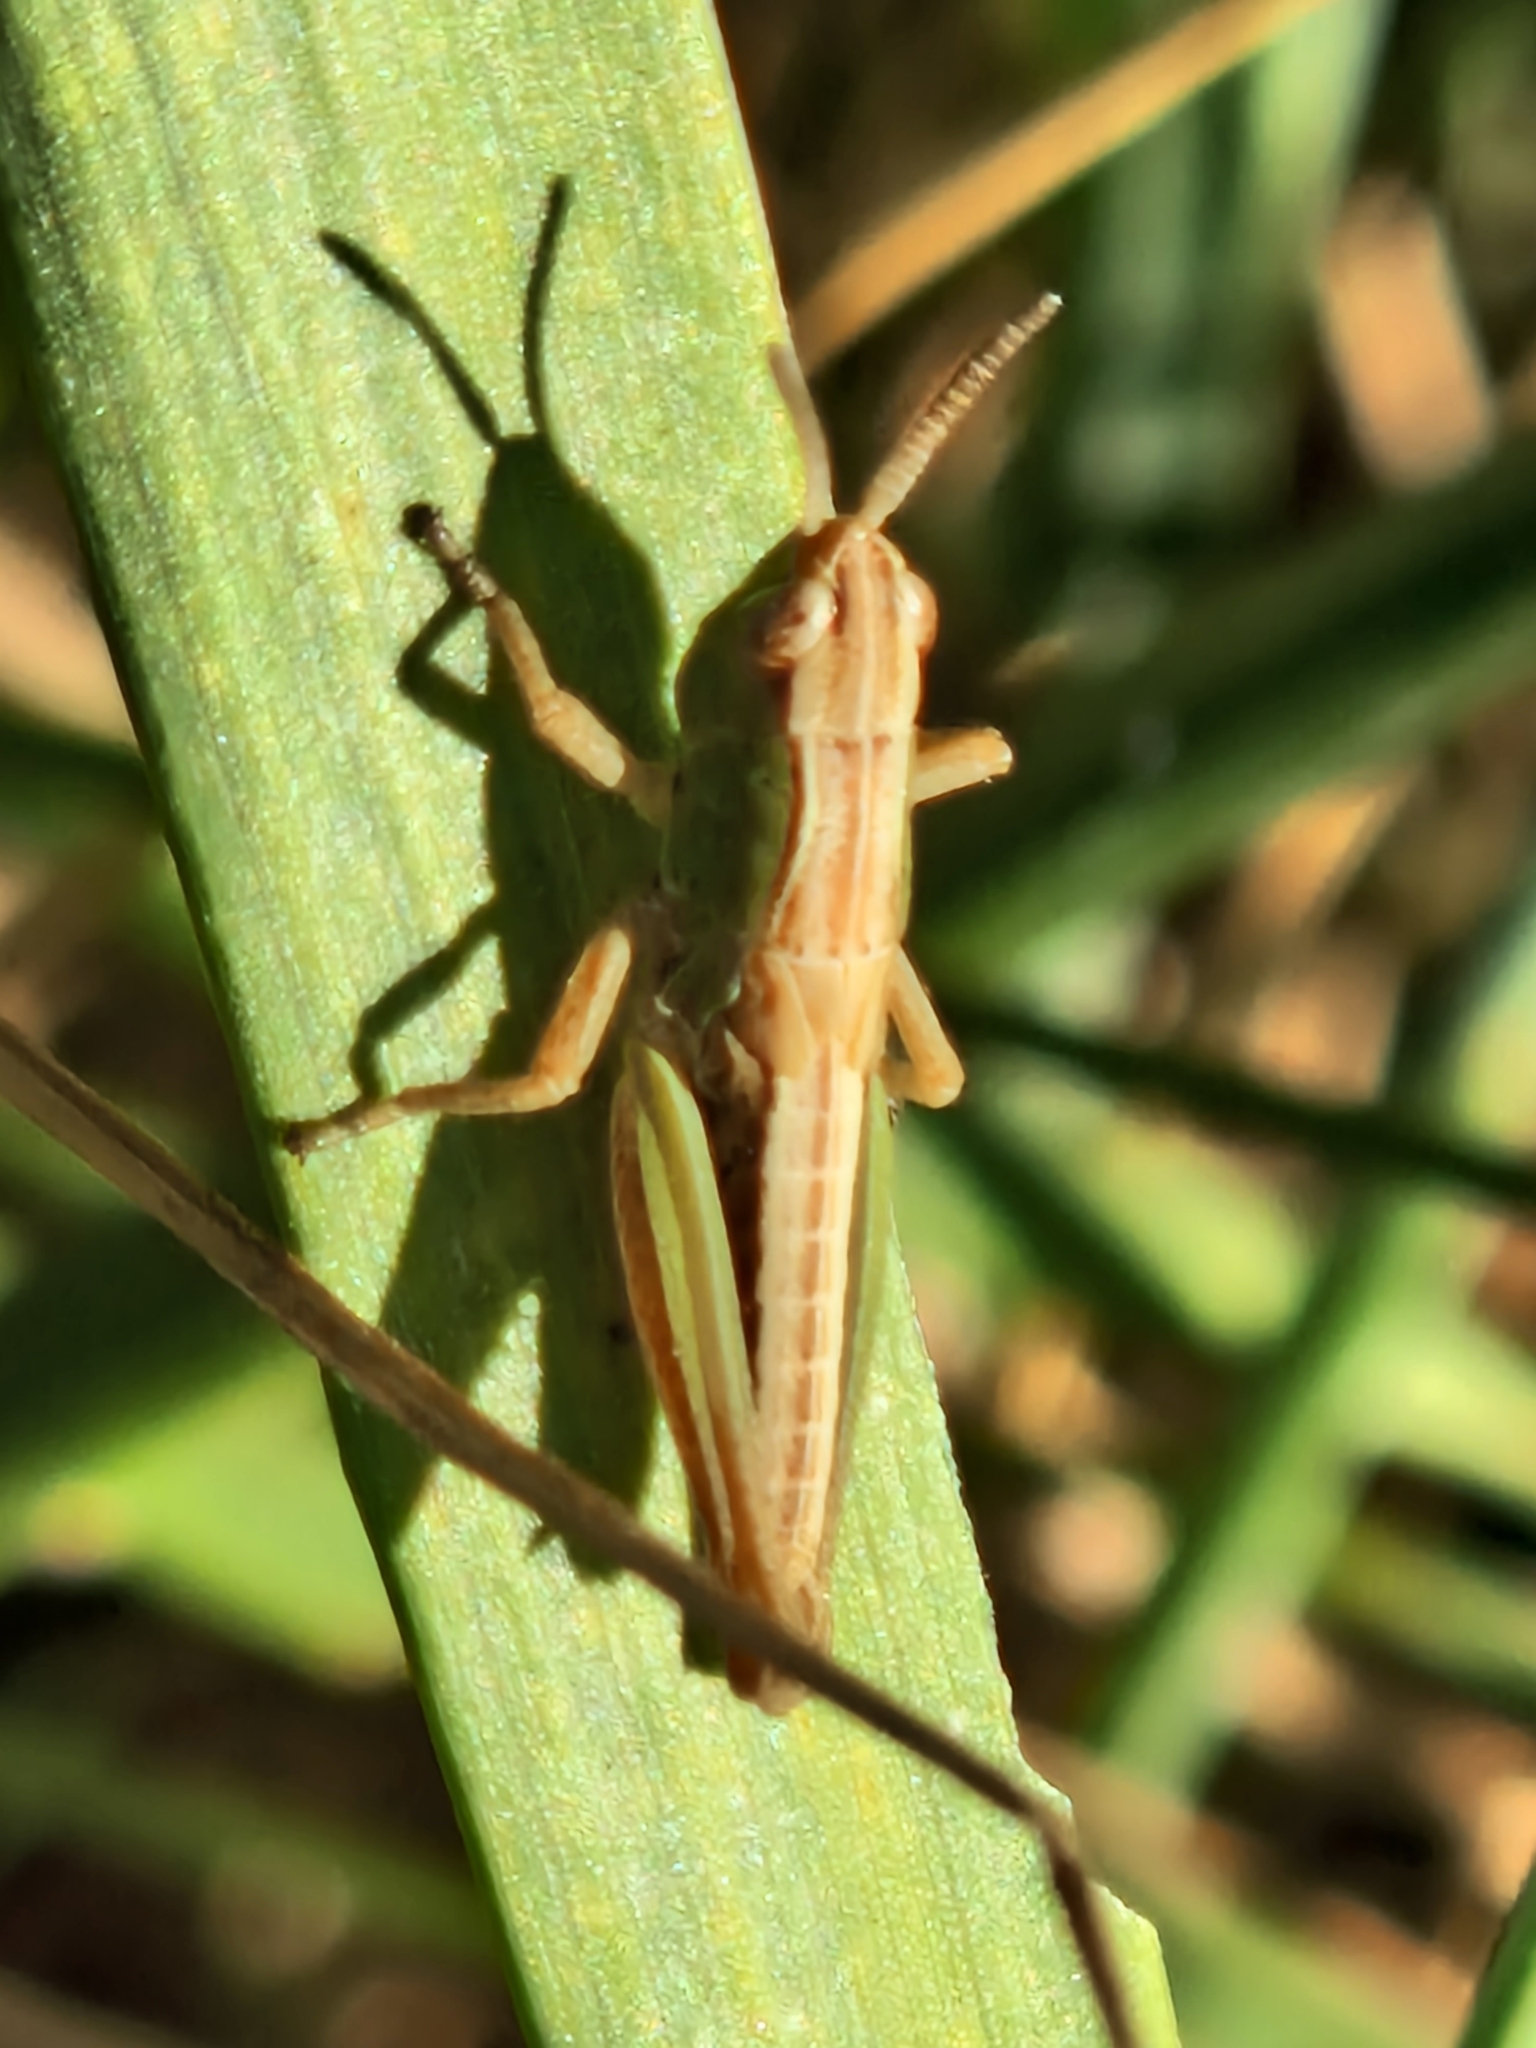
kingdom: Animalia
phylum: Arthropoda
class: Insecta
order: Orthoptera
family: Acrididae
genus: Pseudochorthippus
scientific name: Pseudochorthippus parallelus
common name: Meadow grasshopper
